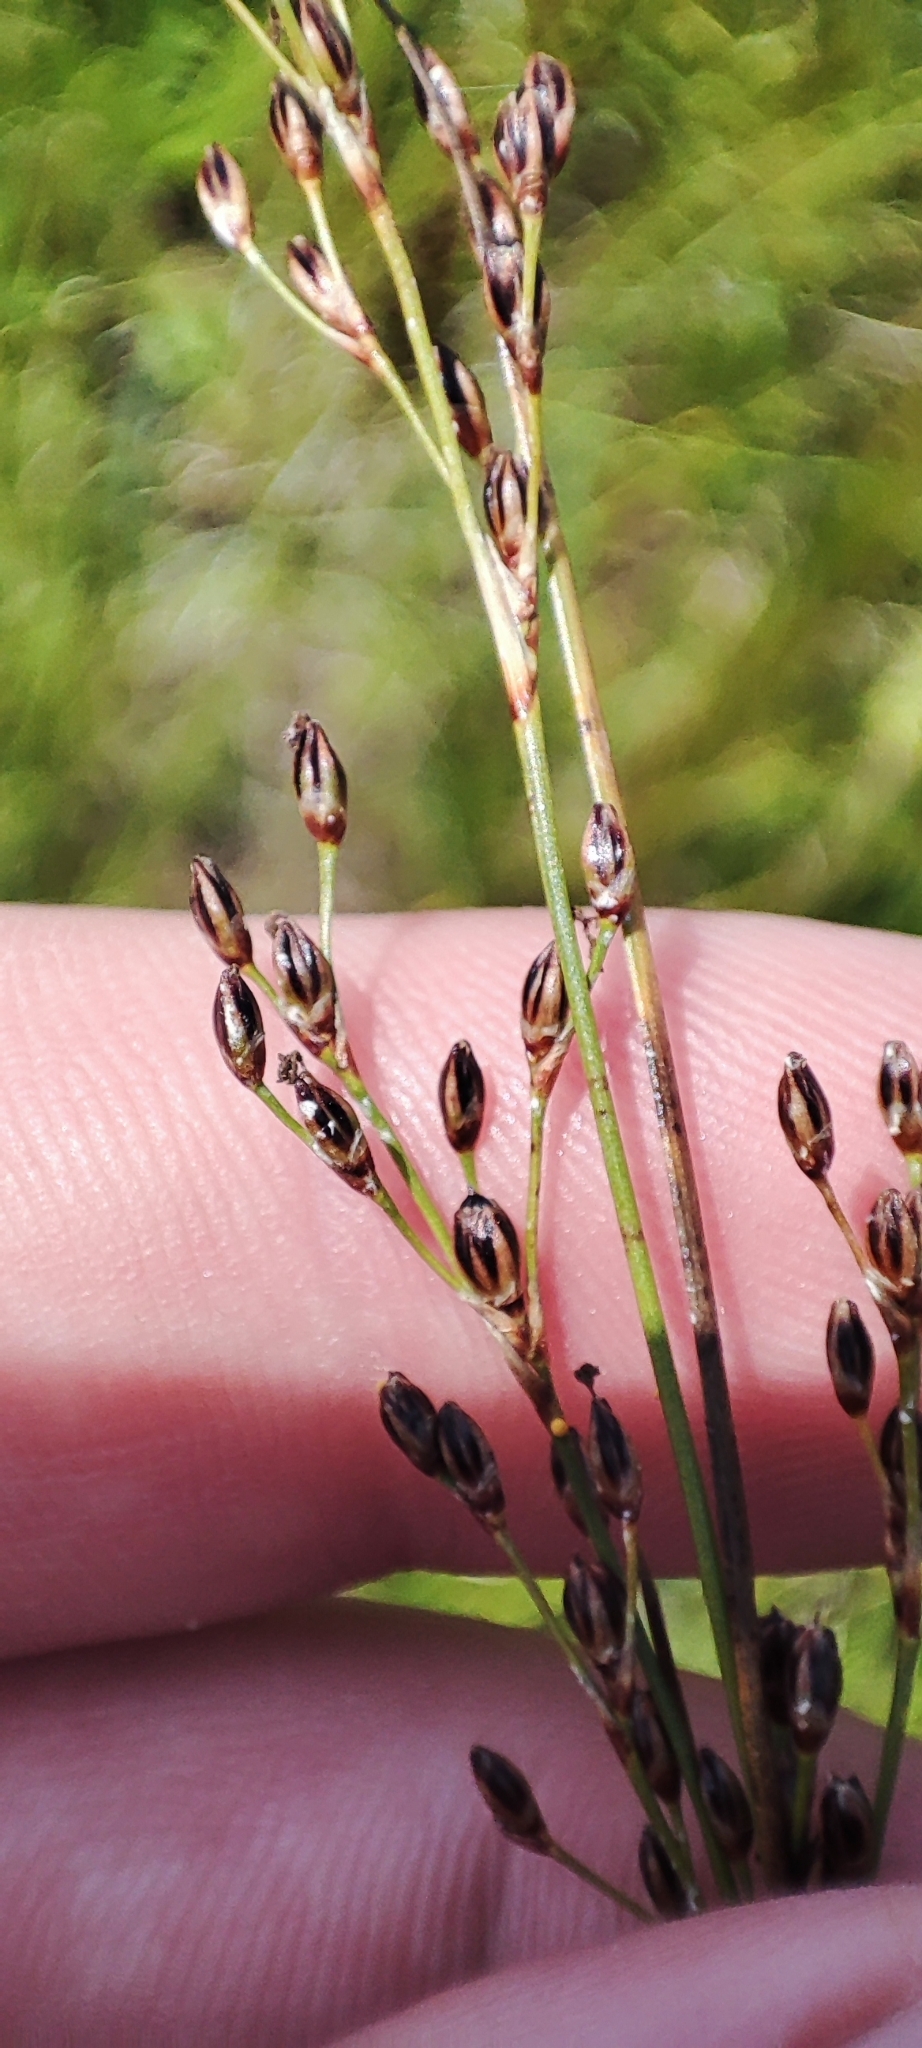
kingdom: Plantae
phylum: Tracheophyta
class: Liliopsida
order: Poales
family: Juncaceae
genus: Juncus
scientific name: Juncus gerardi
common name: Saltmarsh rush
